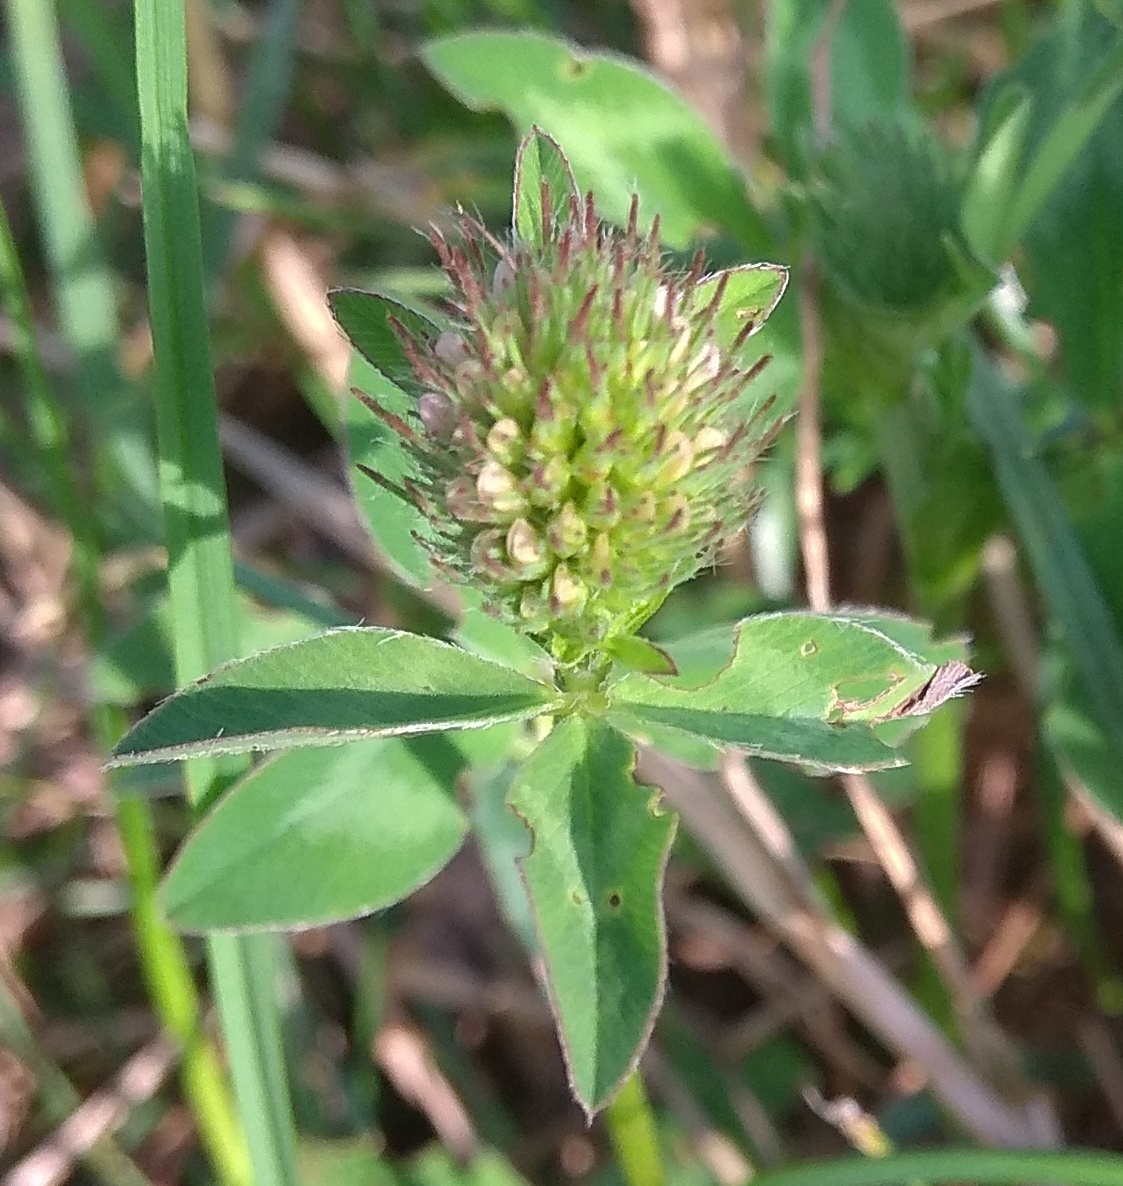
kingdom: Plantae
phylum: Tracheophyta
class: Magnoliopsida
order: Fabales
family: Fabaceae
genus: Trifolium
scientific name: Trifolium pratense
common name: Red clover
